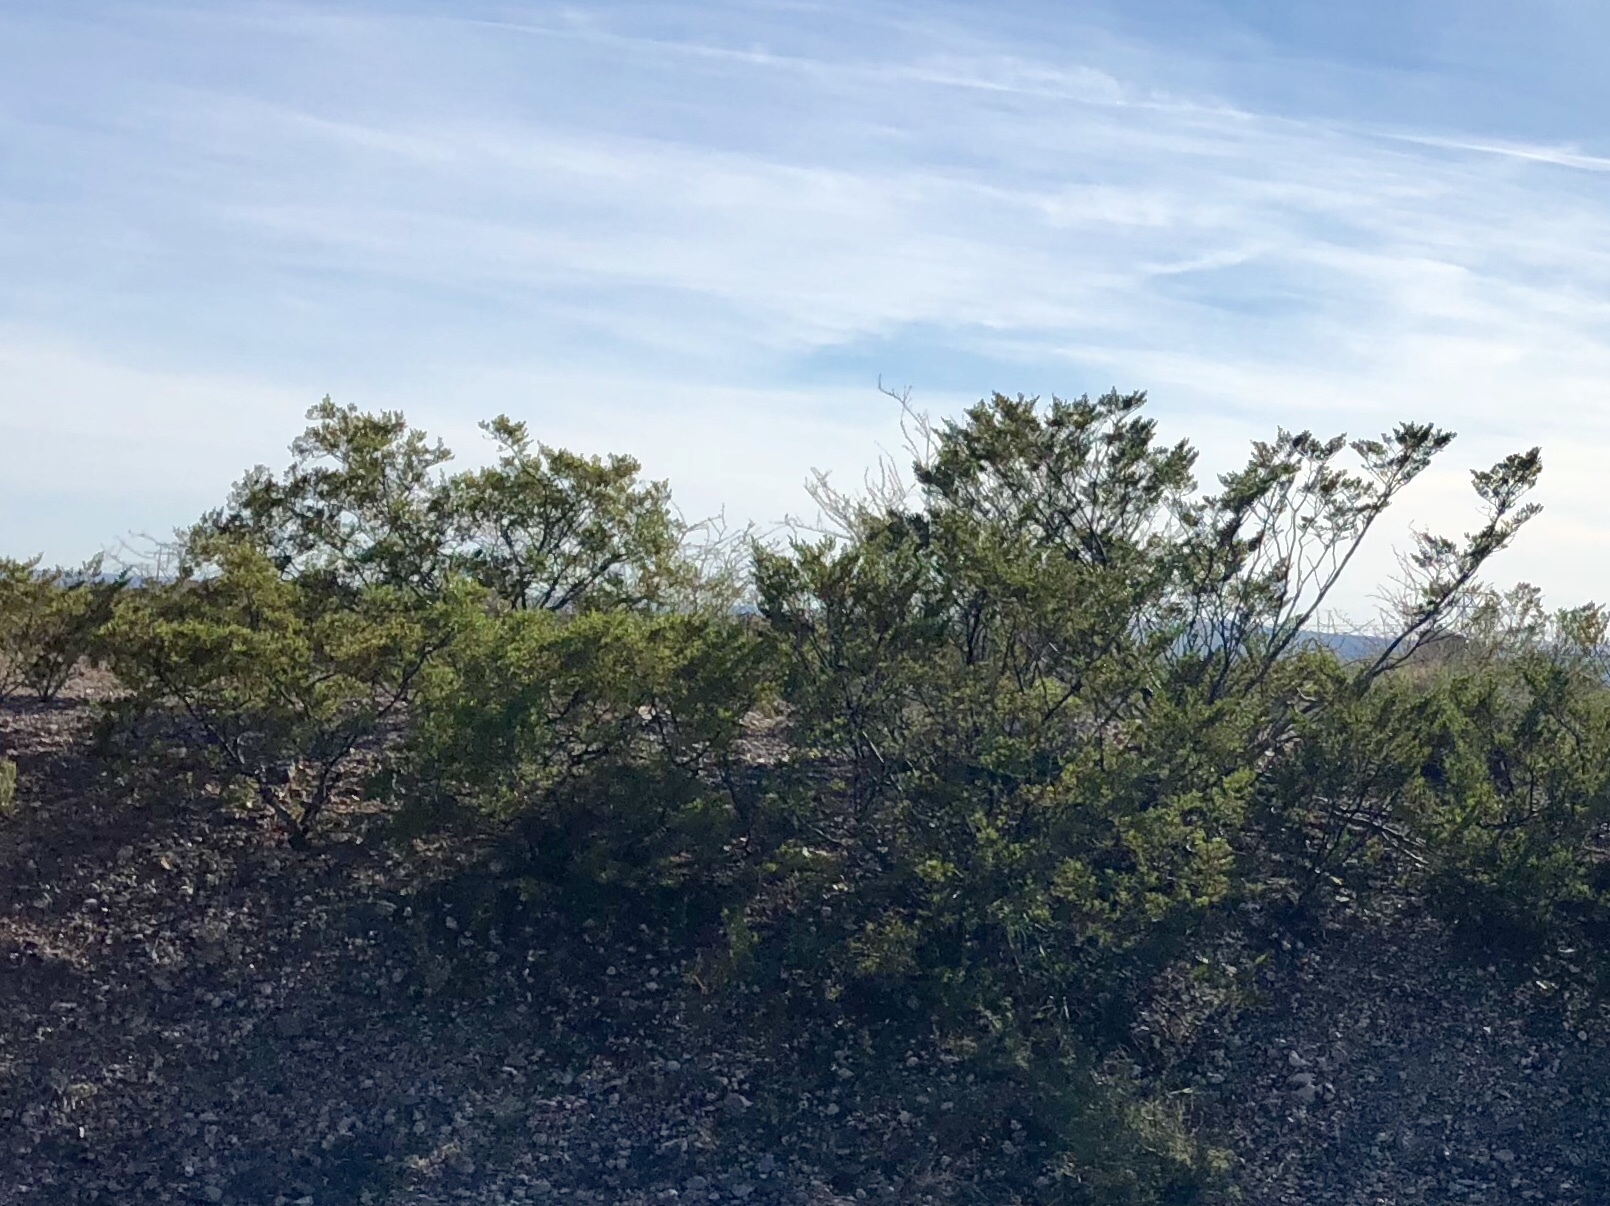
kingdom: Plantae
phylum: Tracheophyta
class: Magnoliopsida
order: Zygophyllales
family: Zygophyllaceae
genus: Larrea
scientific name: Larrea tridentata
